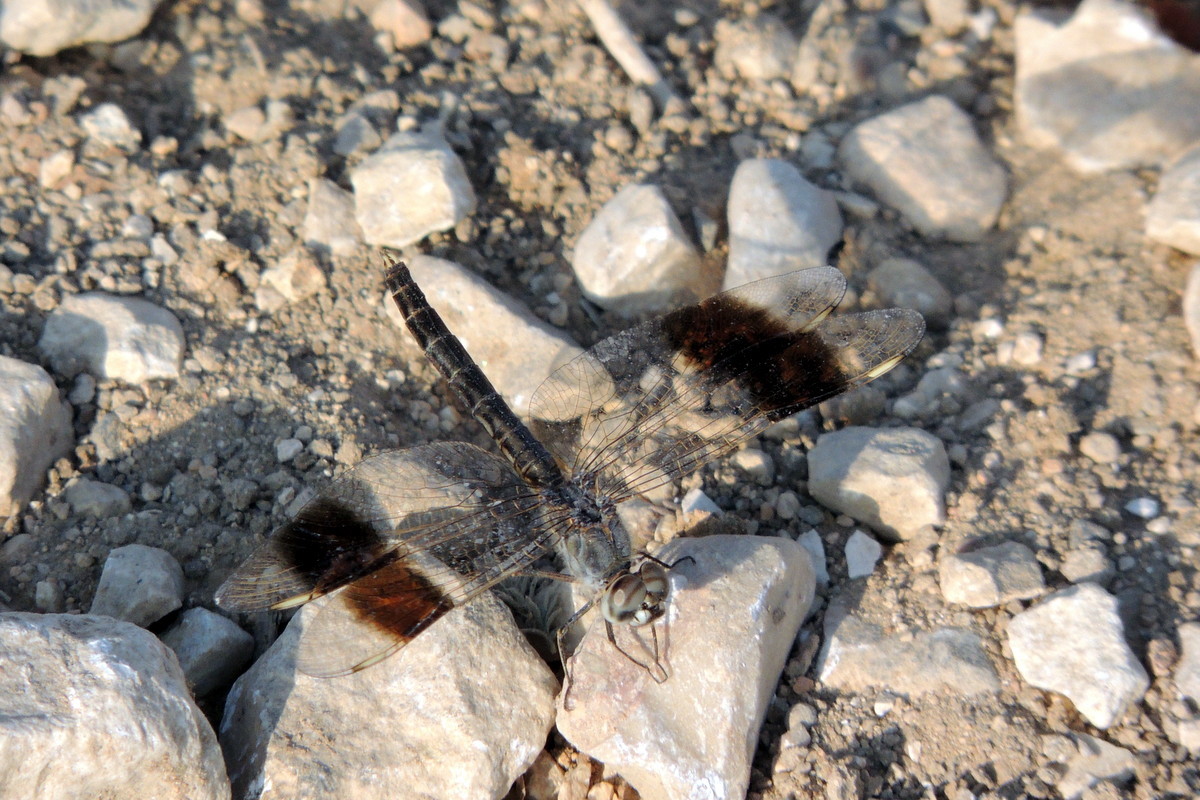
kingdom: Animalia
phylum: Arthropoda
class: Insecta
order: Odonata
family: Libellulidae
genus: Brachythemis
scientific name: Brachythemis impartita
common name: Banded groundling
